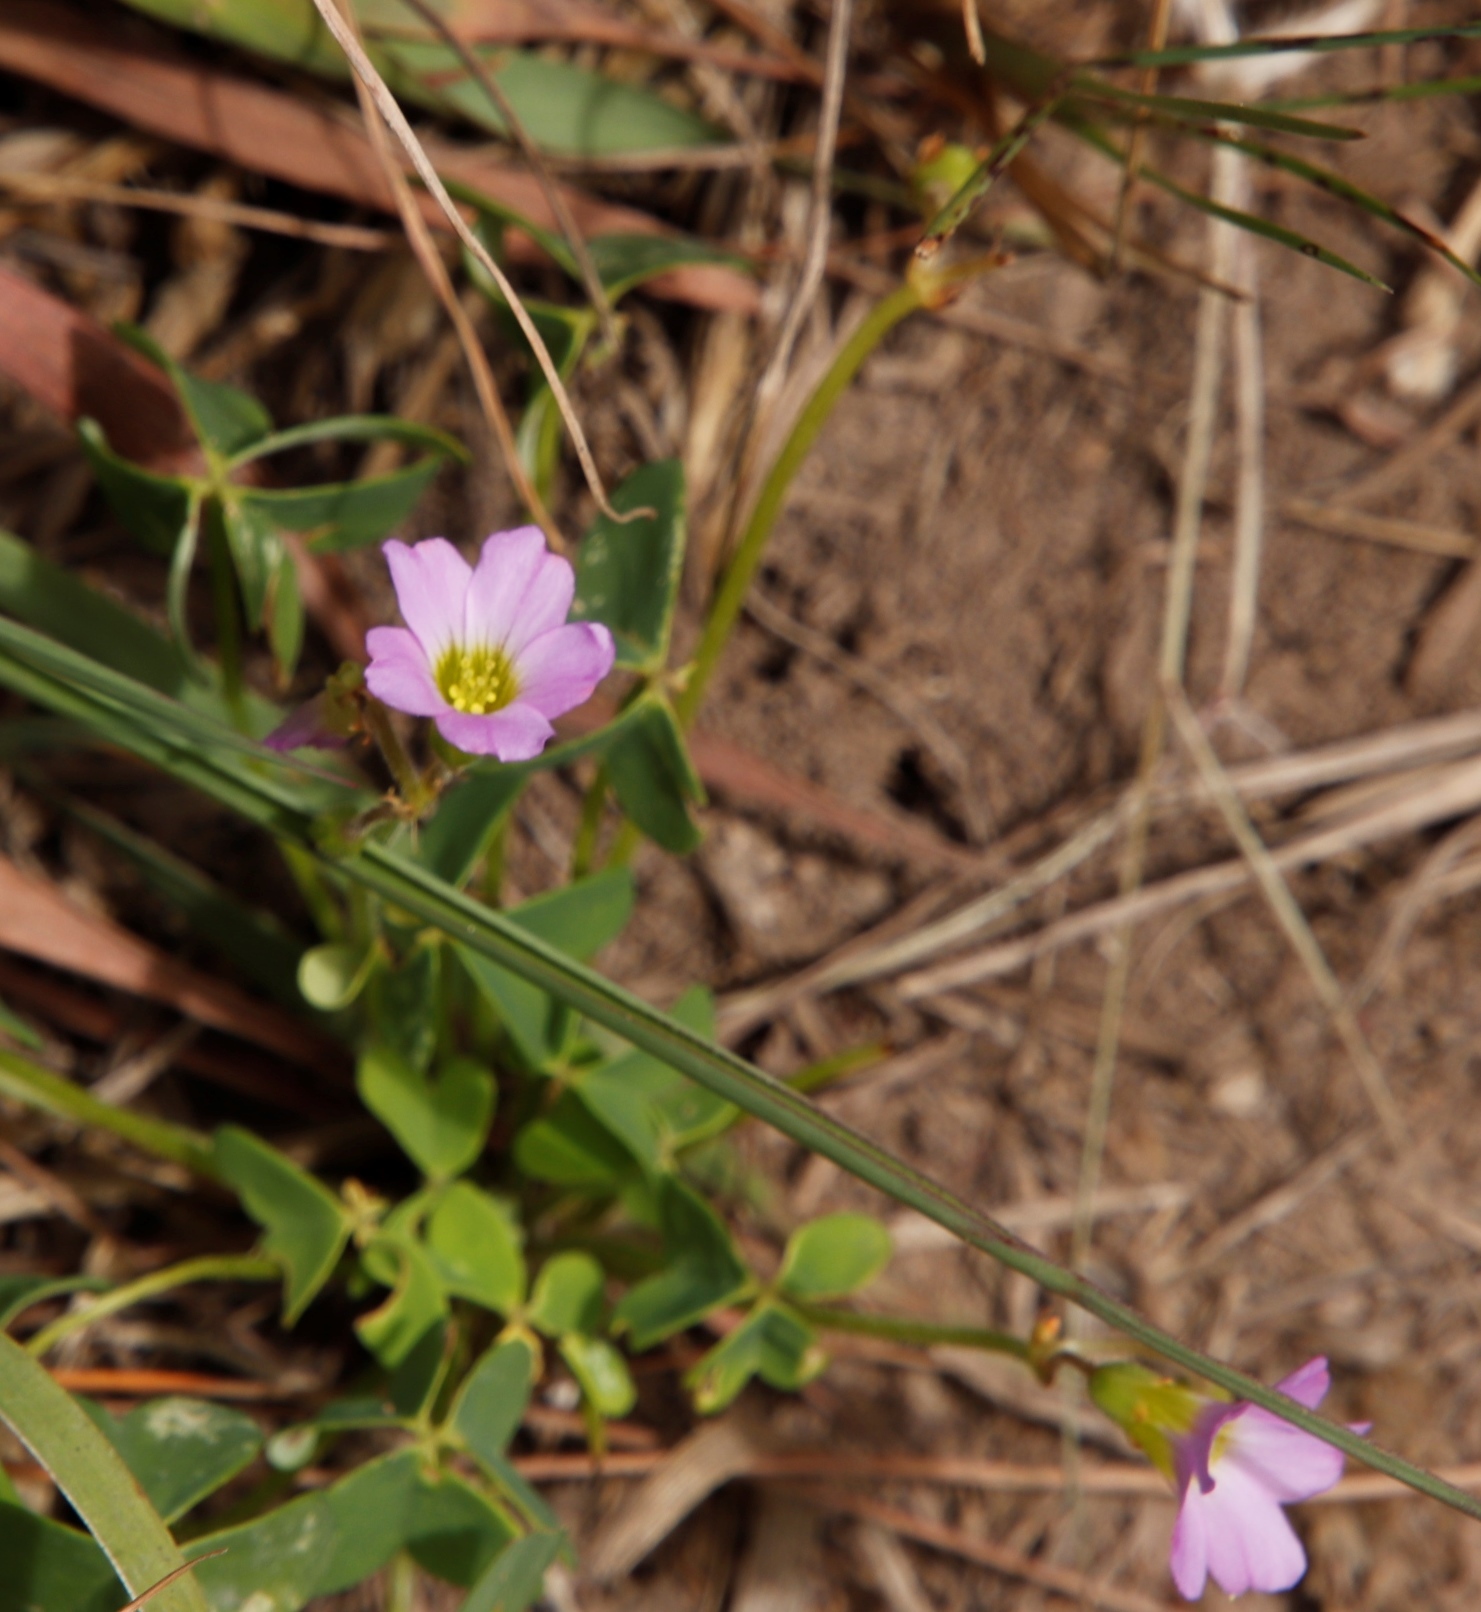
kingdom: Plantae
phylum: Tracheophyta
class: Magnoliopsida
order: Oxalidales
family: Oxalidaceae
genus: Oxalis
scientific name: Oxalis semiloba
